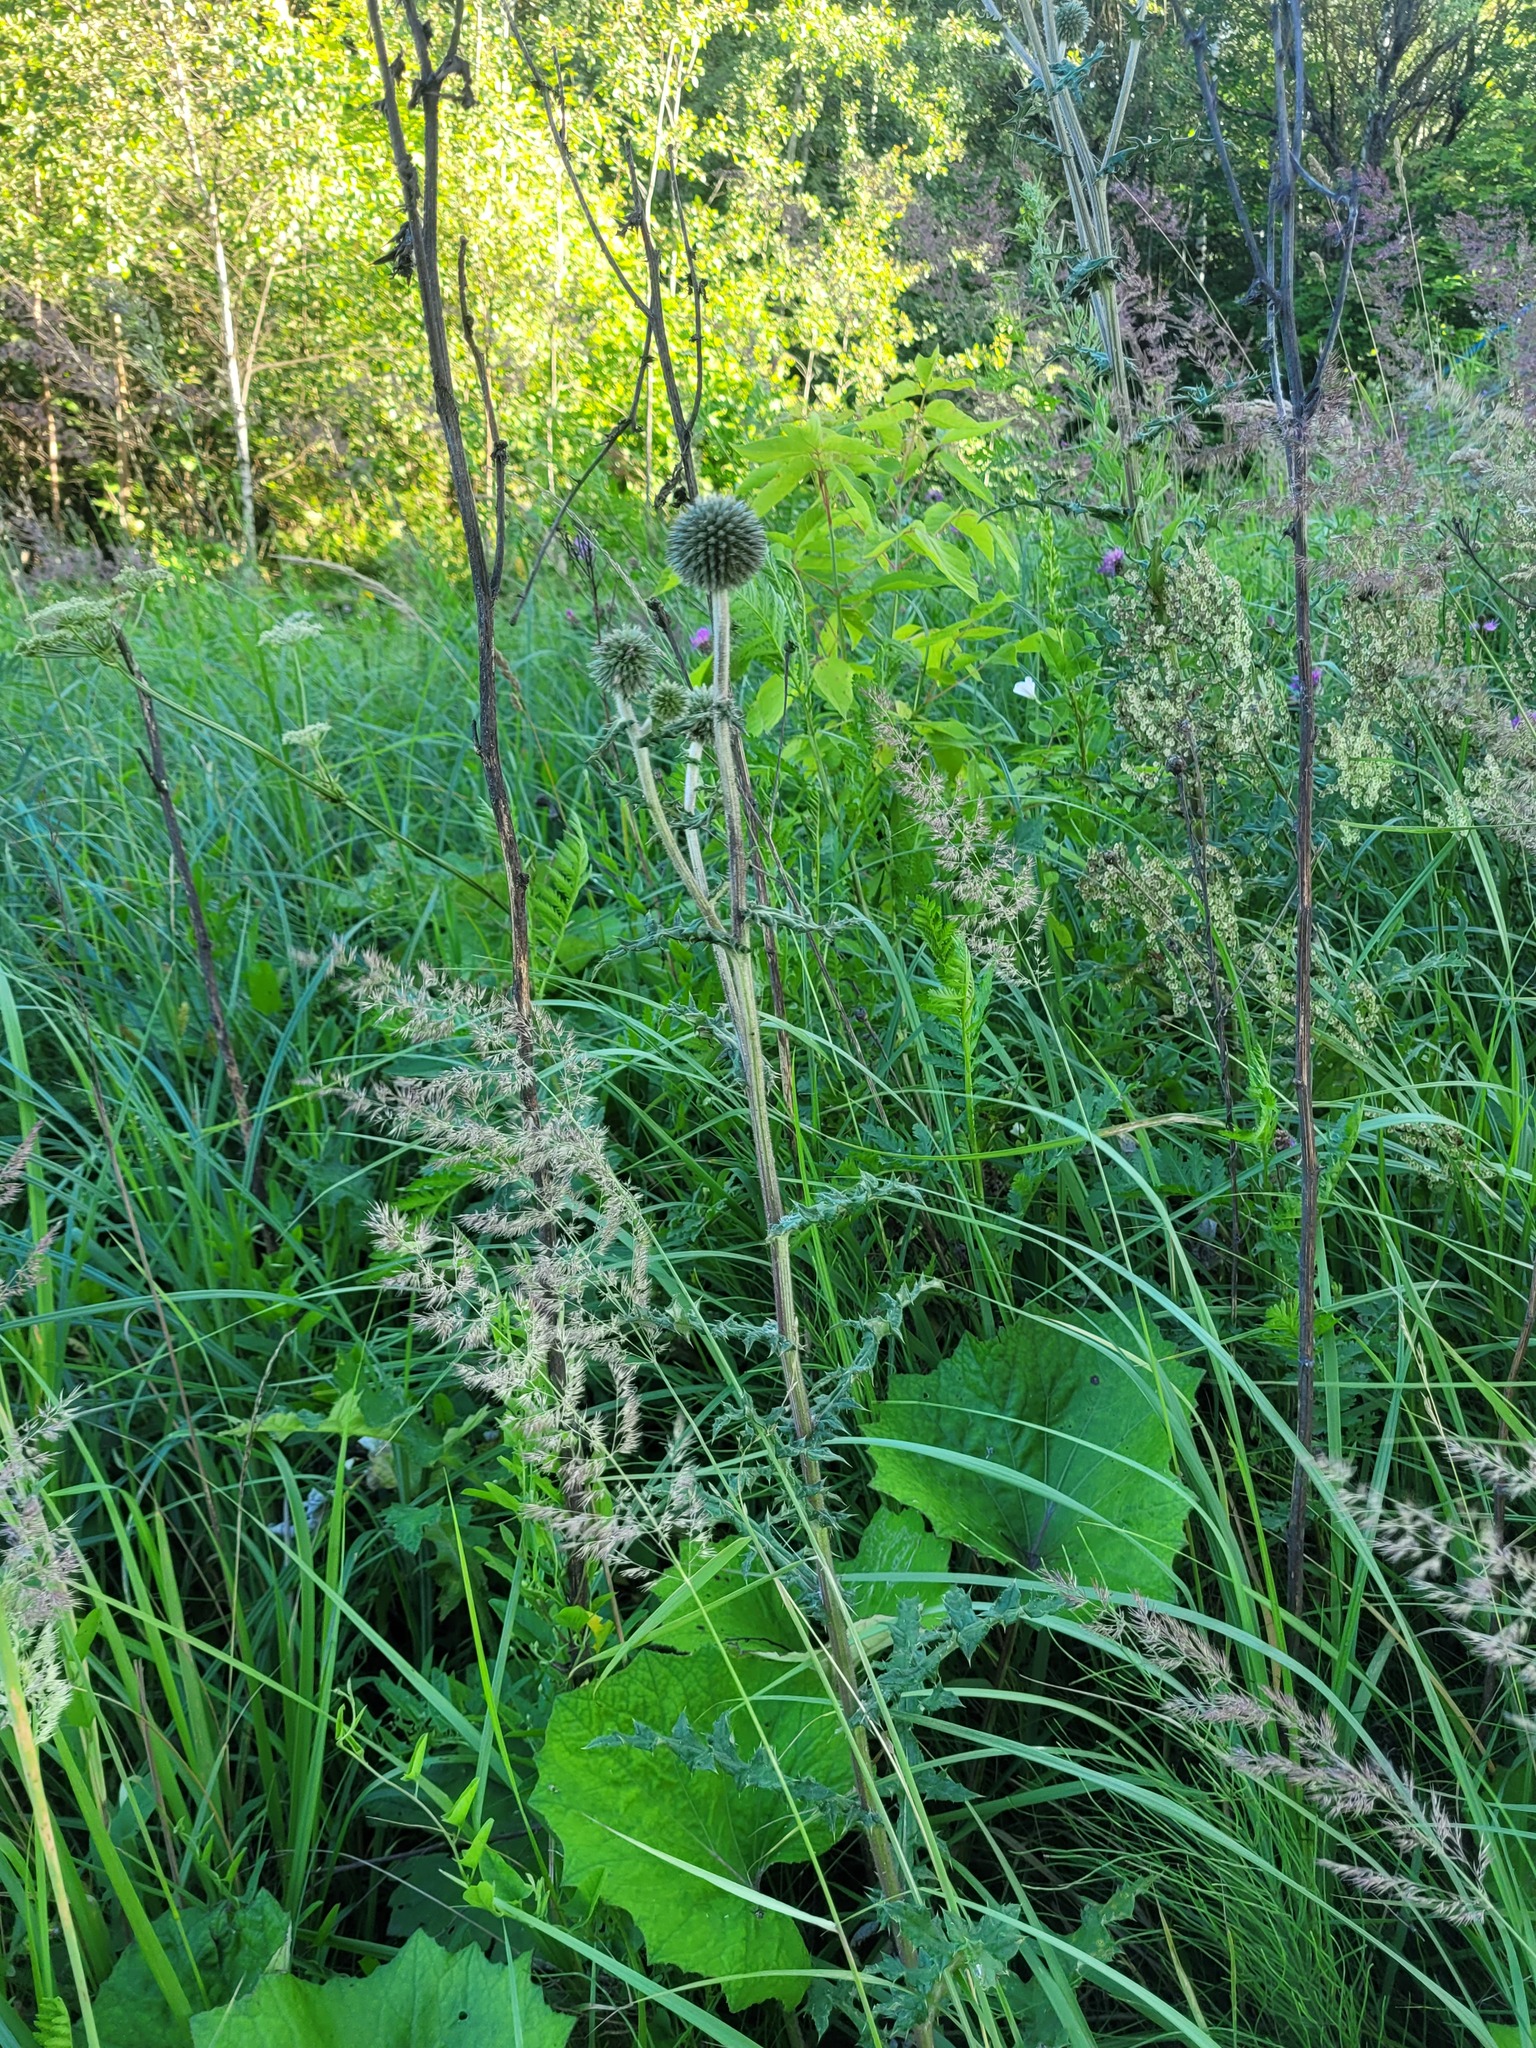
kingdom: Plantae
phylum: Tracheophyta
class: Magnoliopsida
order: Asterales
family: Asteraceae
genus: Echinops
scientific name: Echinops sphaerocephalus
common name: Glandular globe-thistle
